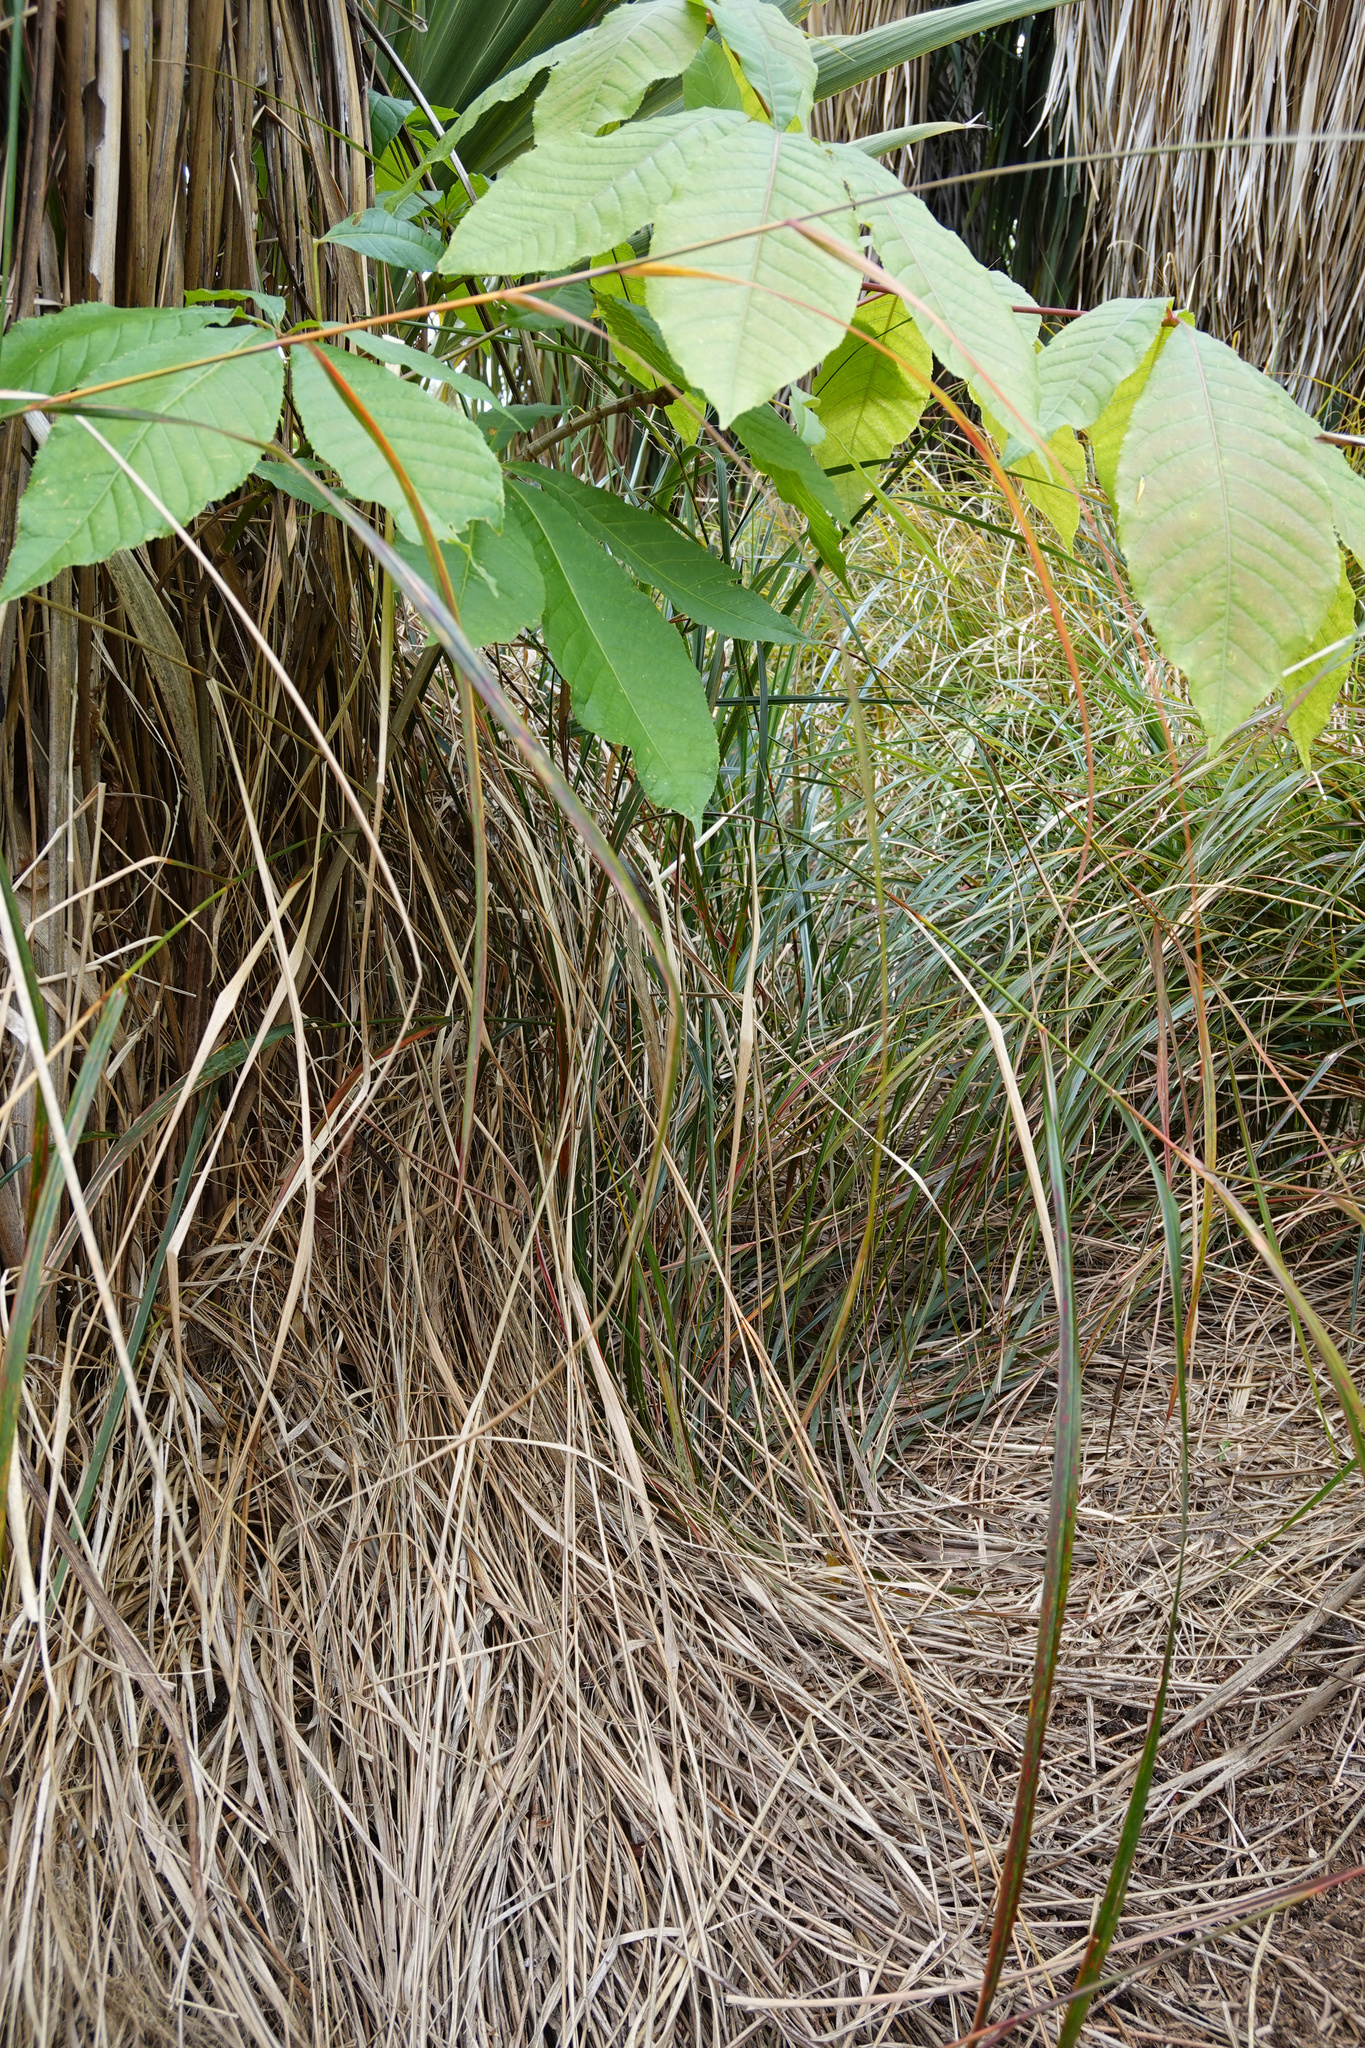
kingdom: Plantae
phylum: Tracheophyta
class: Magnoliopsida
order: Sapindales
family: Sapindaceae
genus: Aesculus
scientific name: Aesculus hippocastanum
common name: Horse-chestnut
